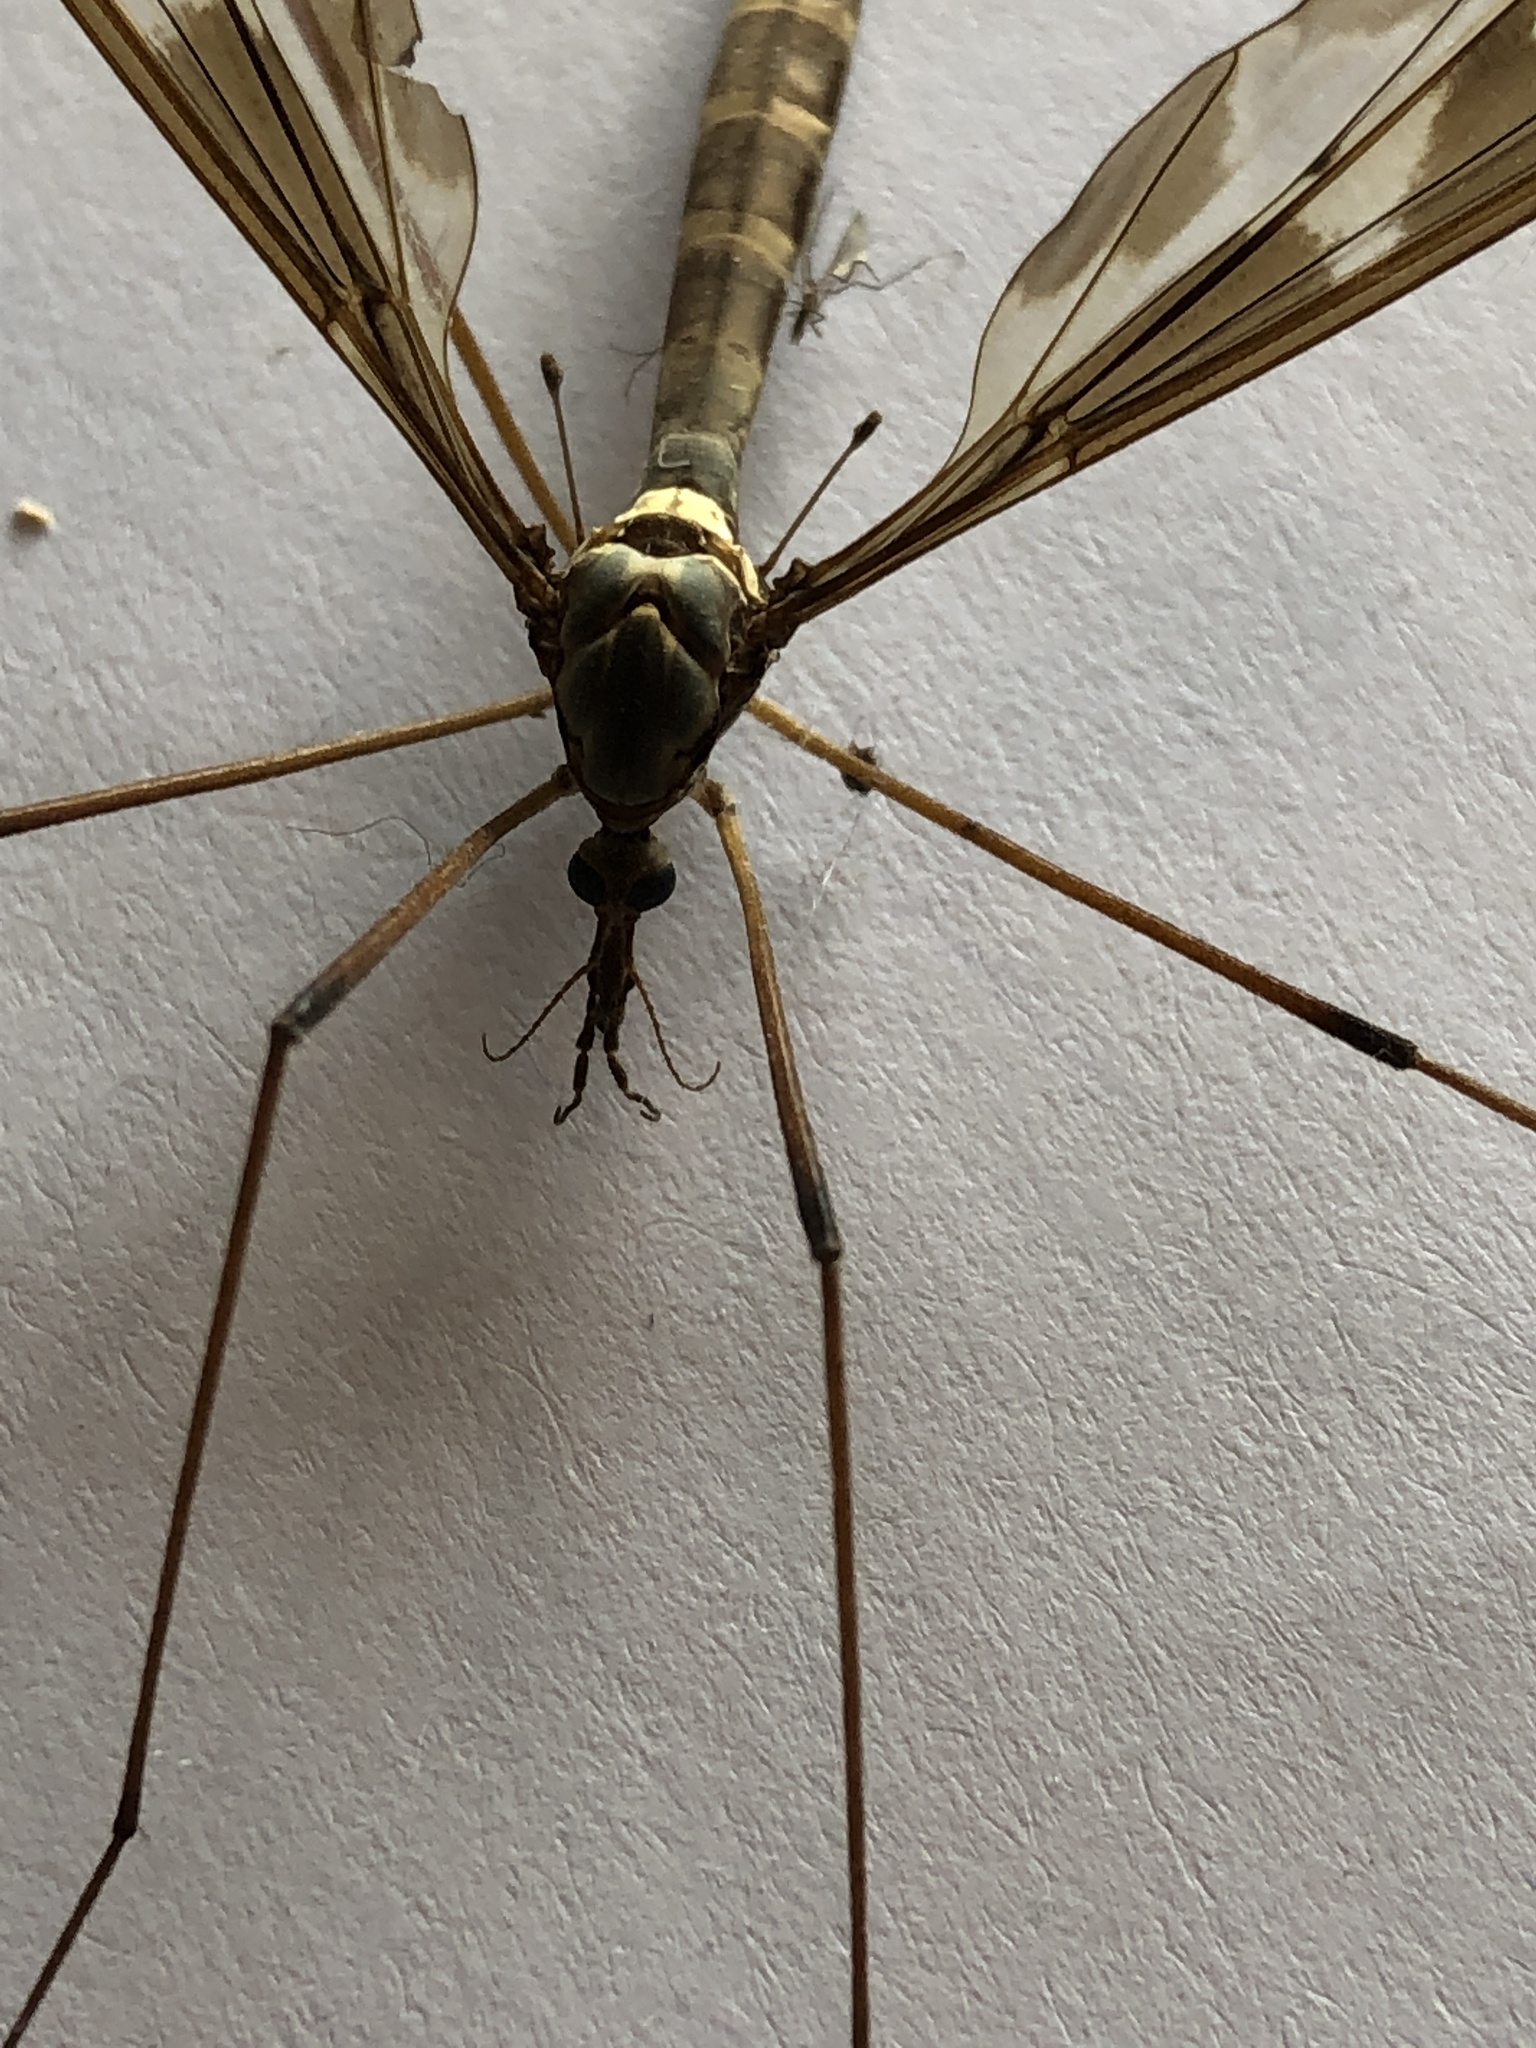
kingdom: Animalia
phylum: Arthropoda
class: Insecta
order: Diptera
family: Tipulidae
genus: Tipula
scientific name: Tipula maxima
